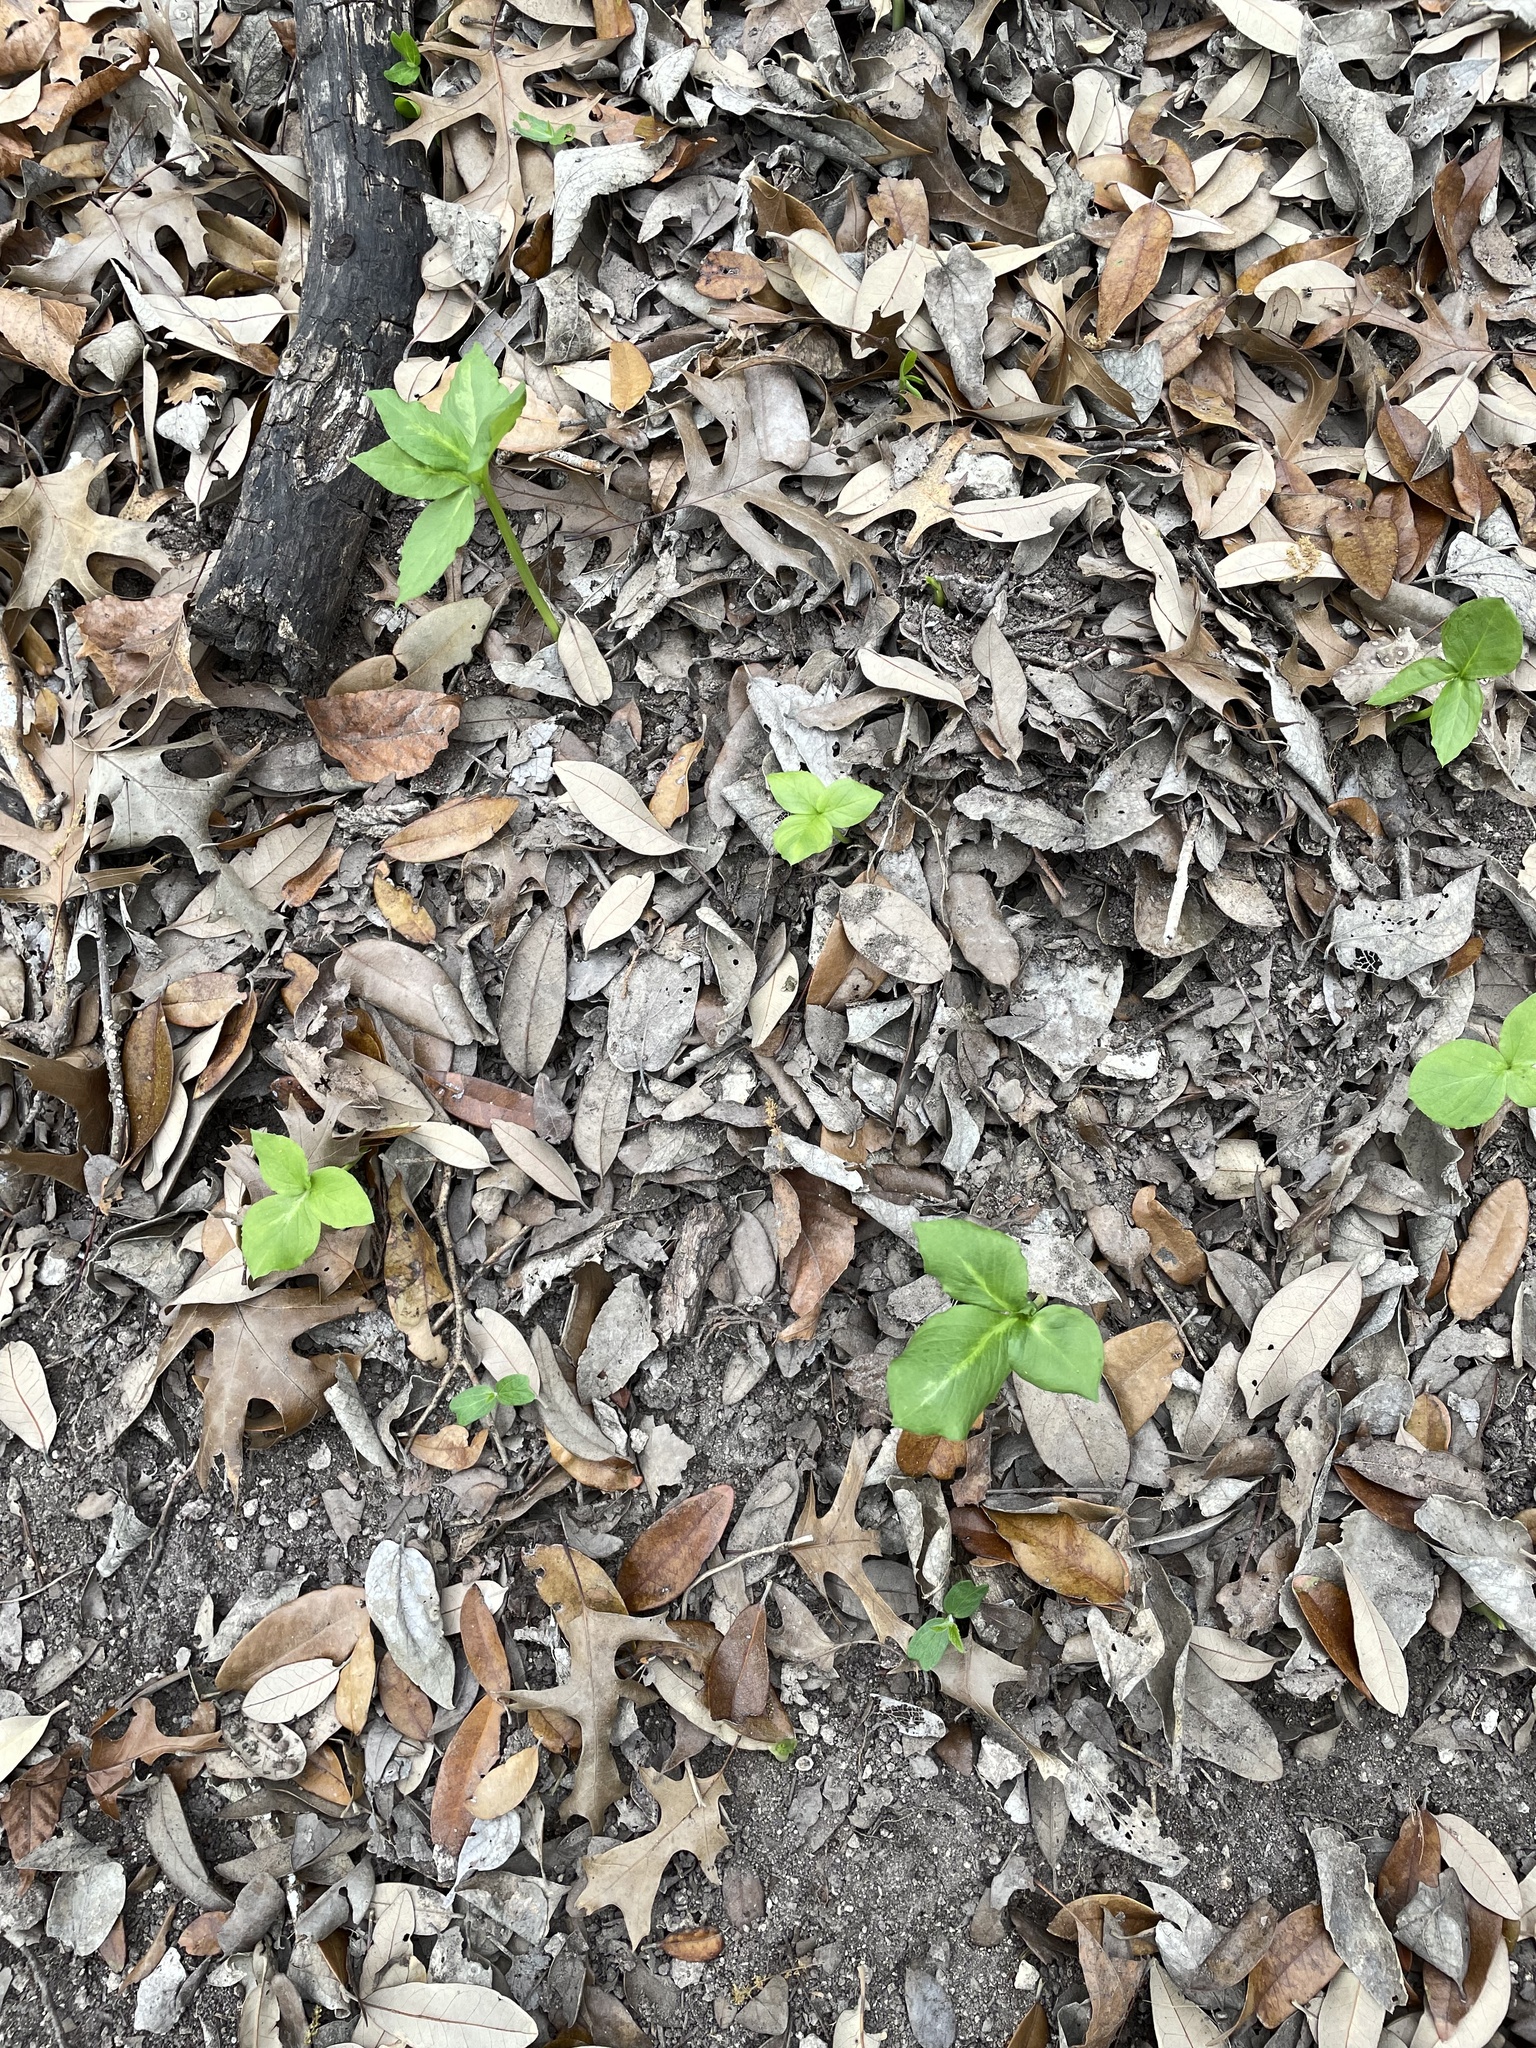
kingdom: Plantae
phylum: Tracheophyta
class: Liliopsida
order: Alismatales
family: Araceae
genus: Arisaema
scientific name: Arisaema dracontium
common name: Dragon-arum
